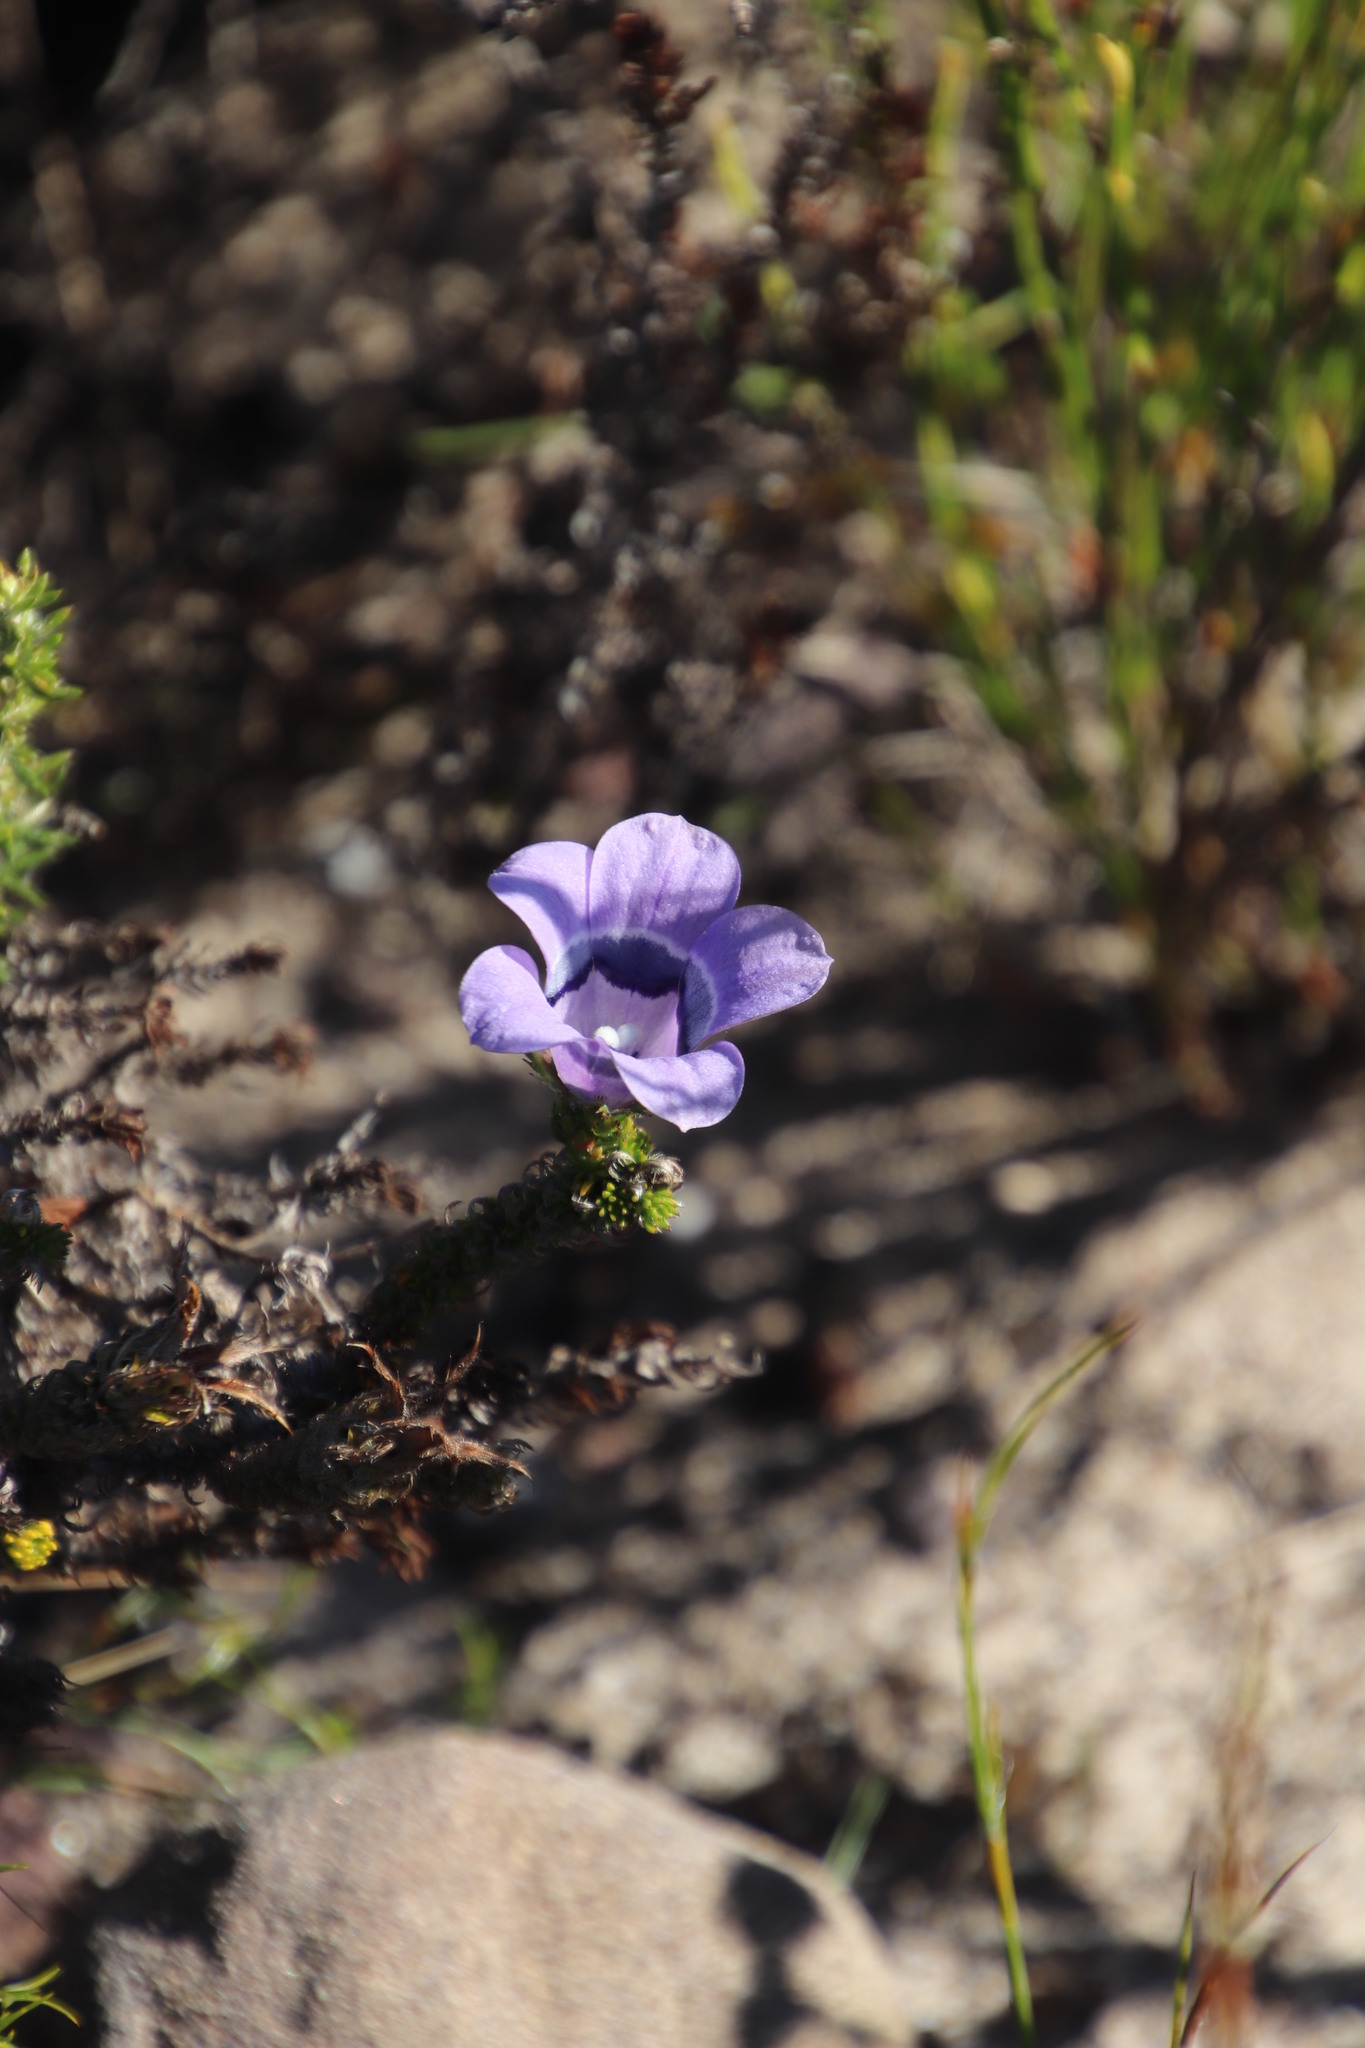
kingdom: Plantae
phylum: Tracheophyta
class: Magnoliopsida
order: Asterales
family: Campanulaceae
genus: Roella
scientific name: Roella ciliata
